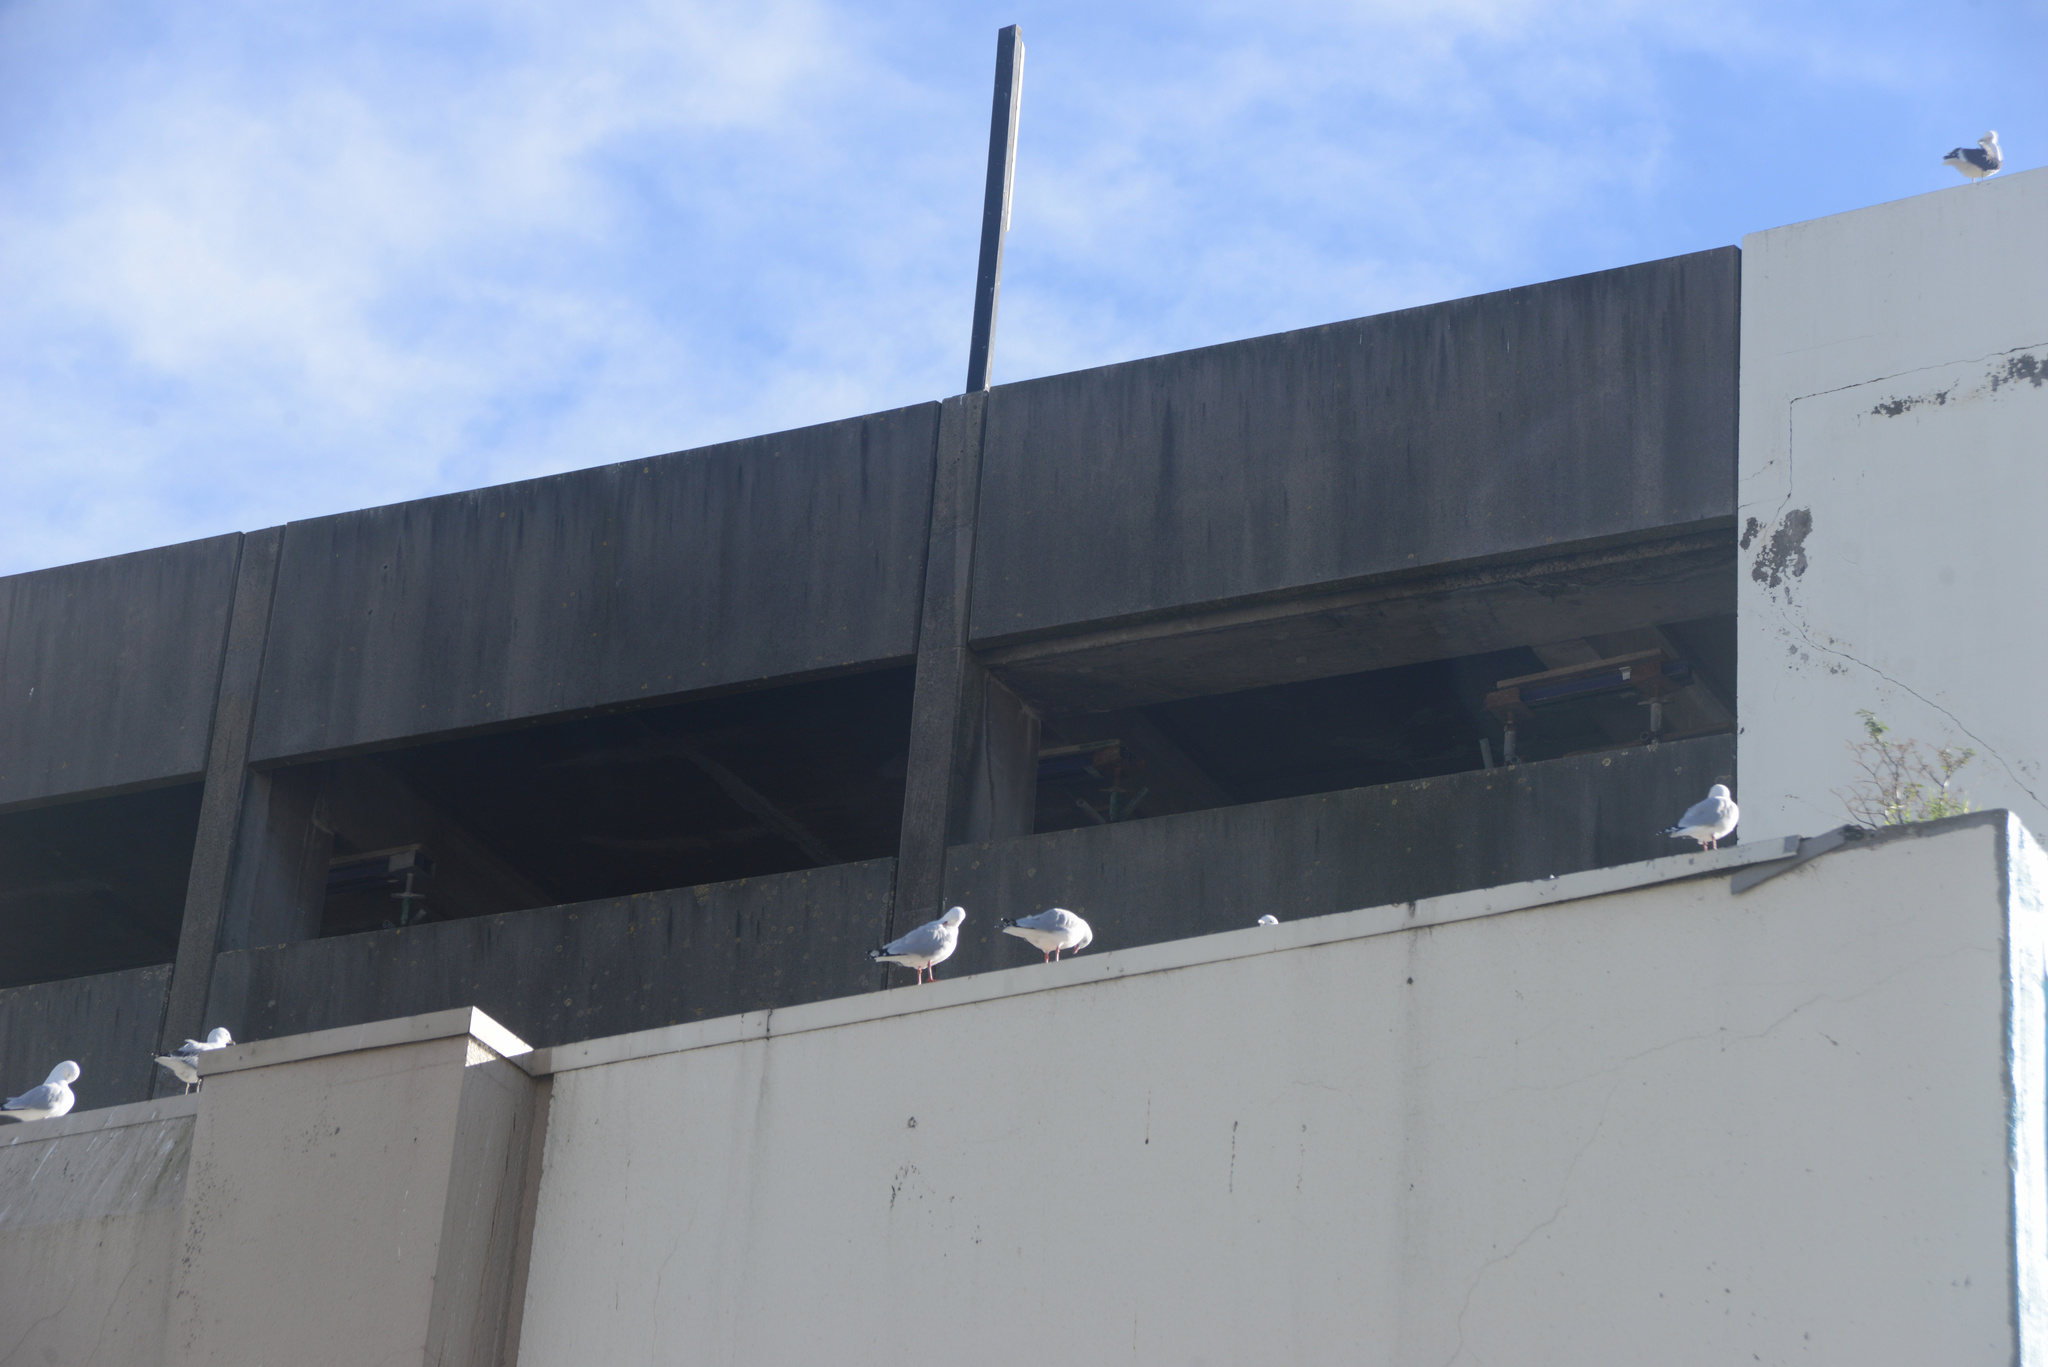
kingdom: Animalia
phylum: Chordata
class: Aves
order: Charadriiformes
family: Laridae
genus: Chroicocephalus
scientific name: Chroicocephalus novaehollandiae
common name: Silver gull
